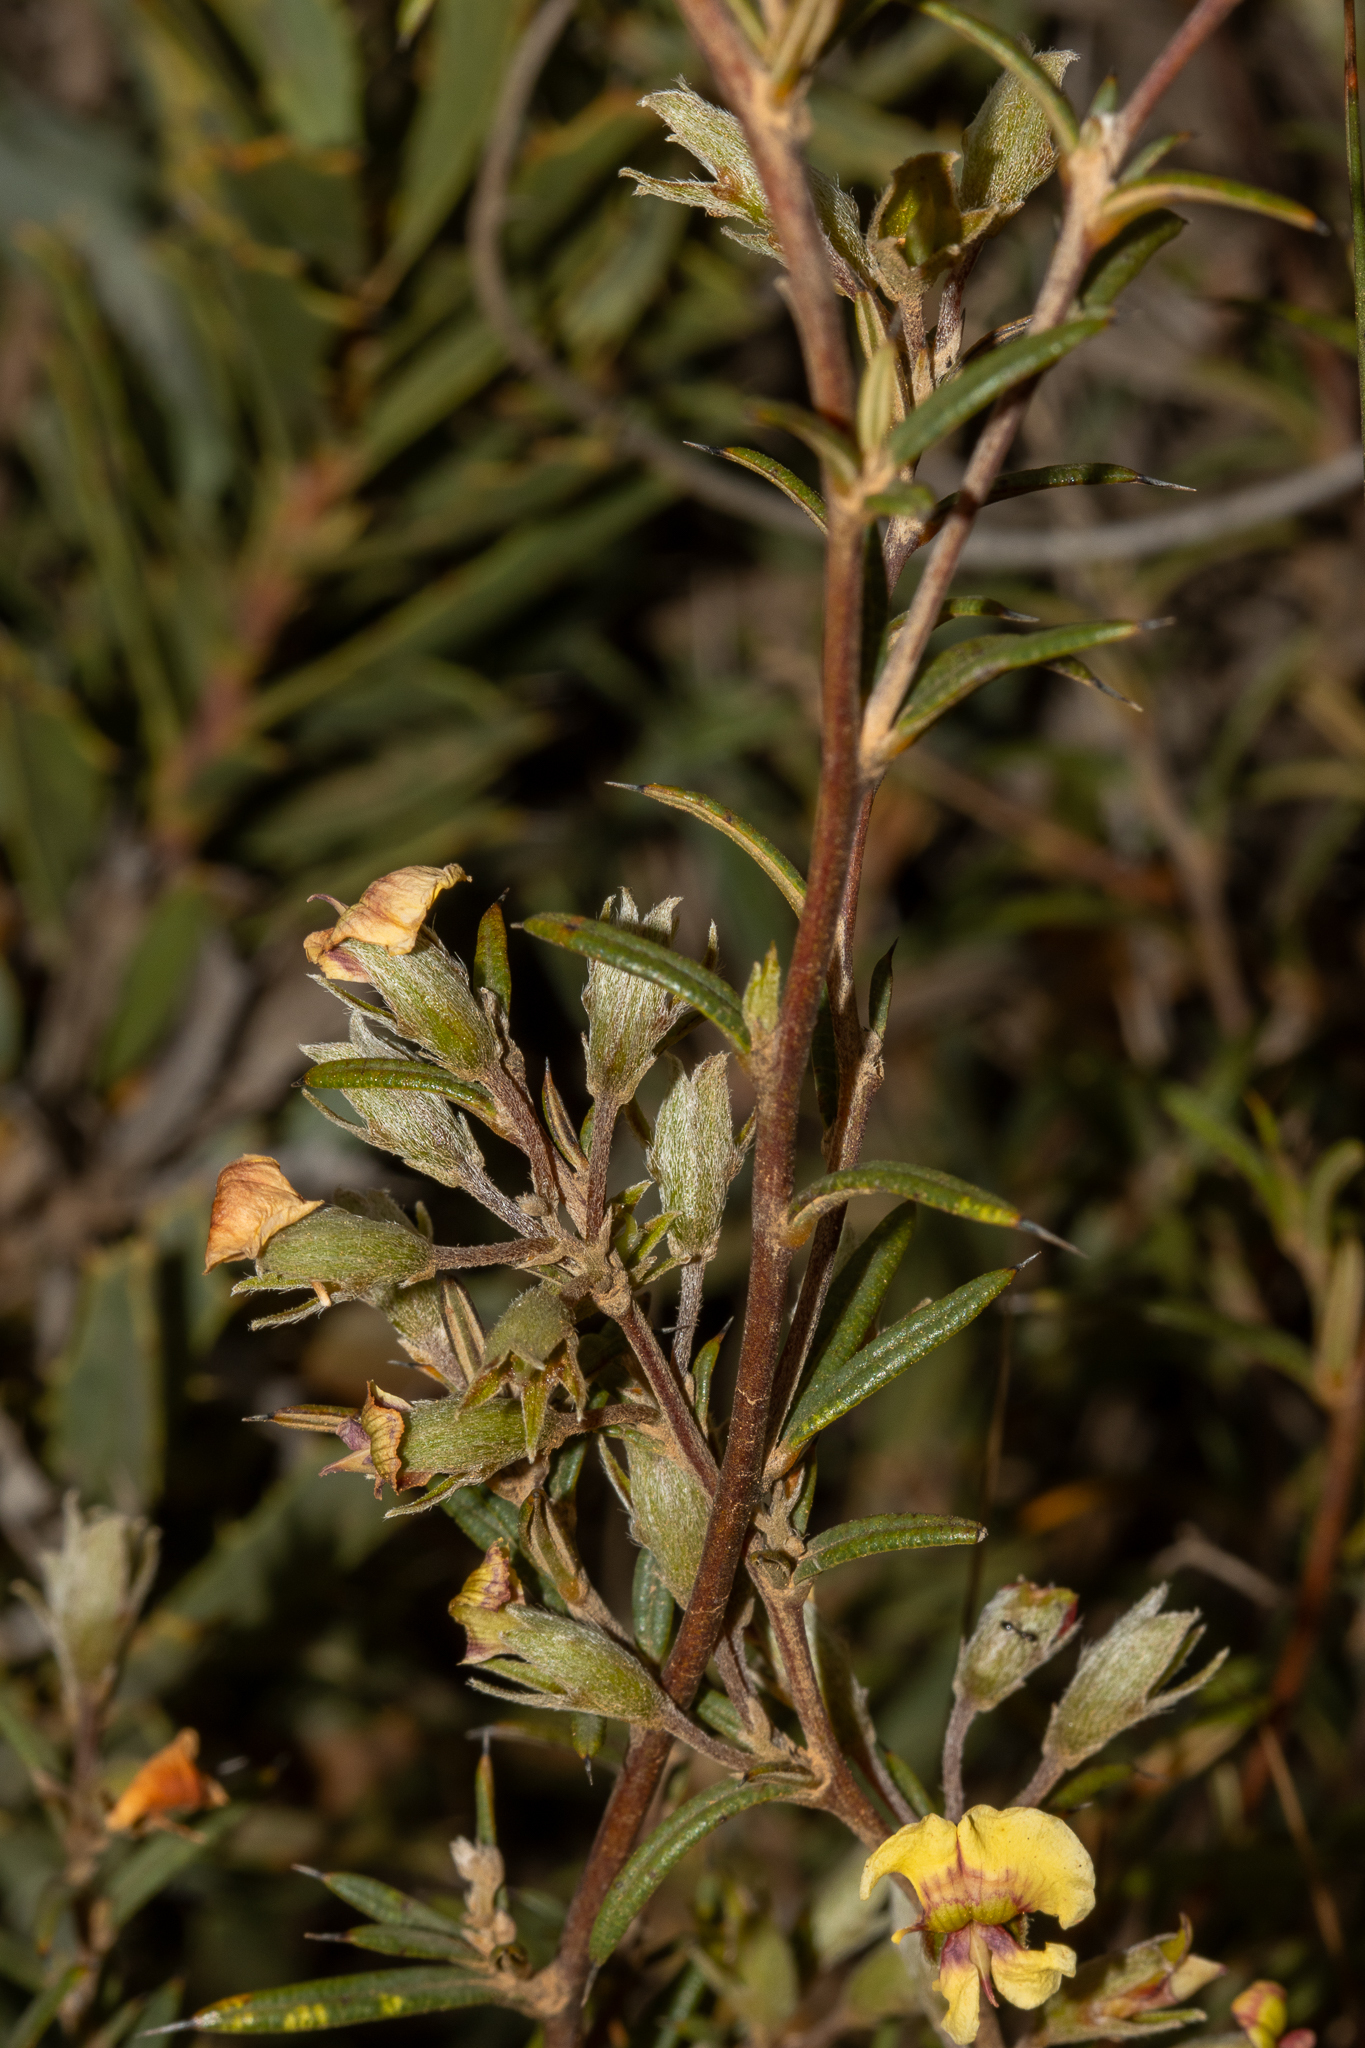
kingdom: Plantae
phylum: Tracheophyta
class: Magnoliopsida
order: Fabales
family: Fabaceae
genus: Chorizema
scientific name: Chorizema aciculare
